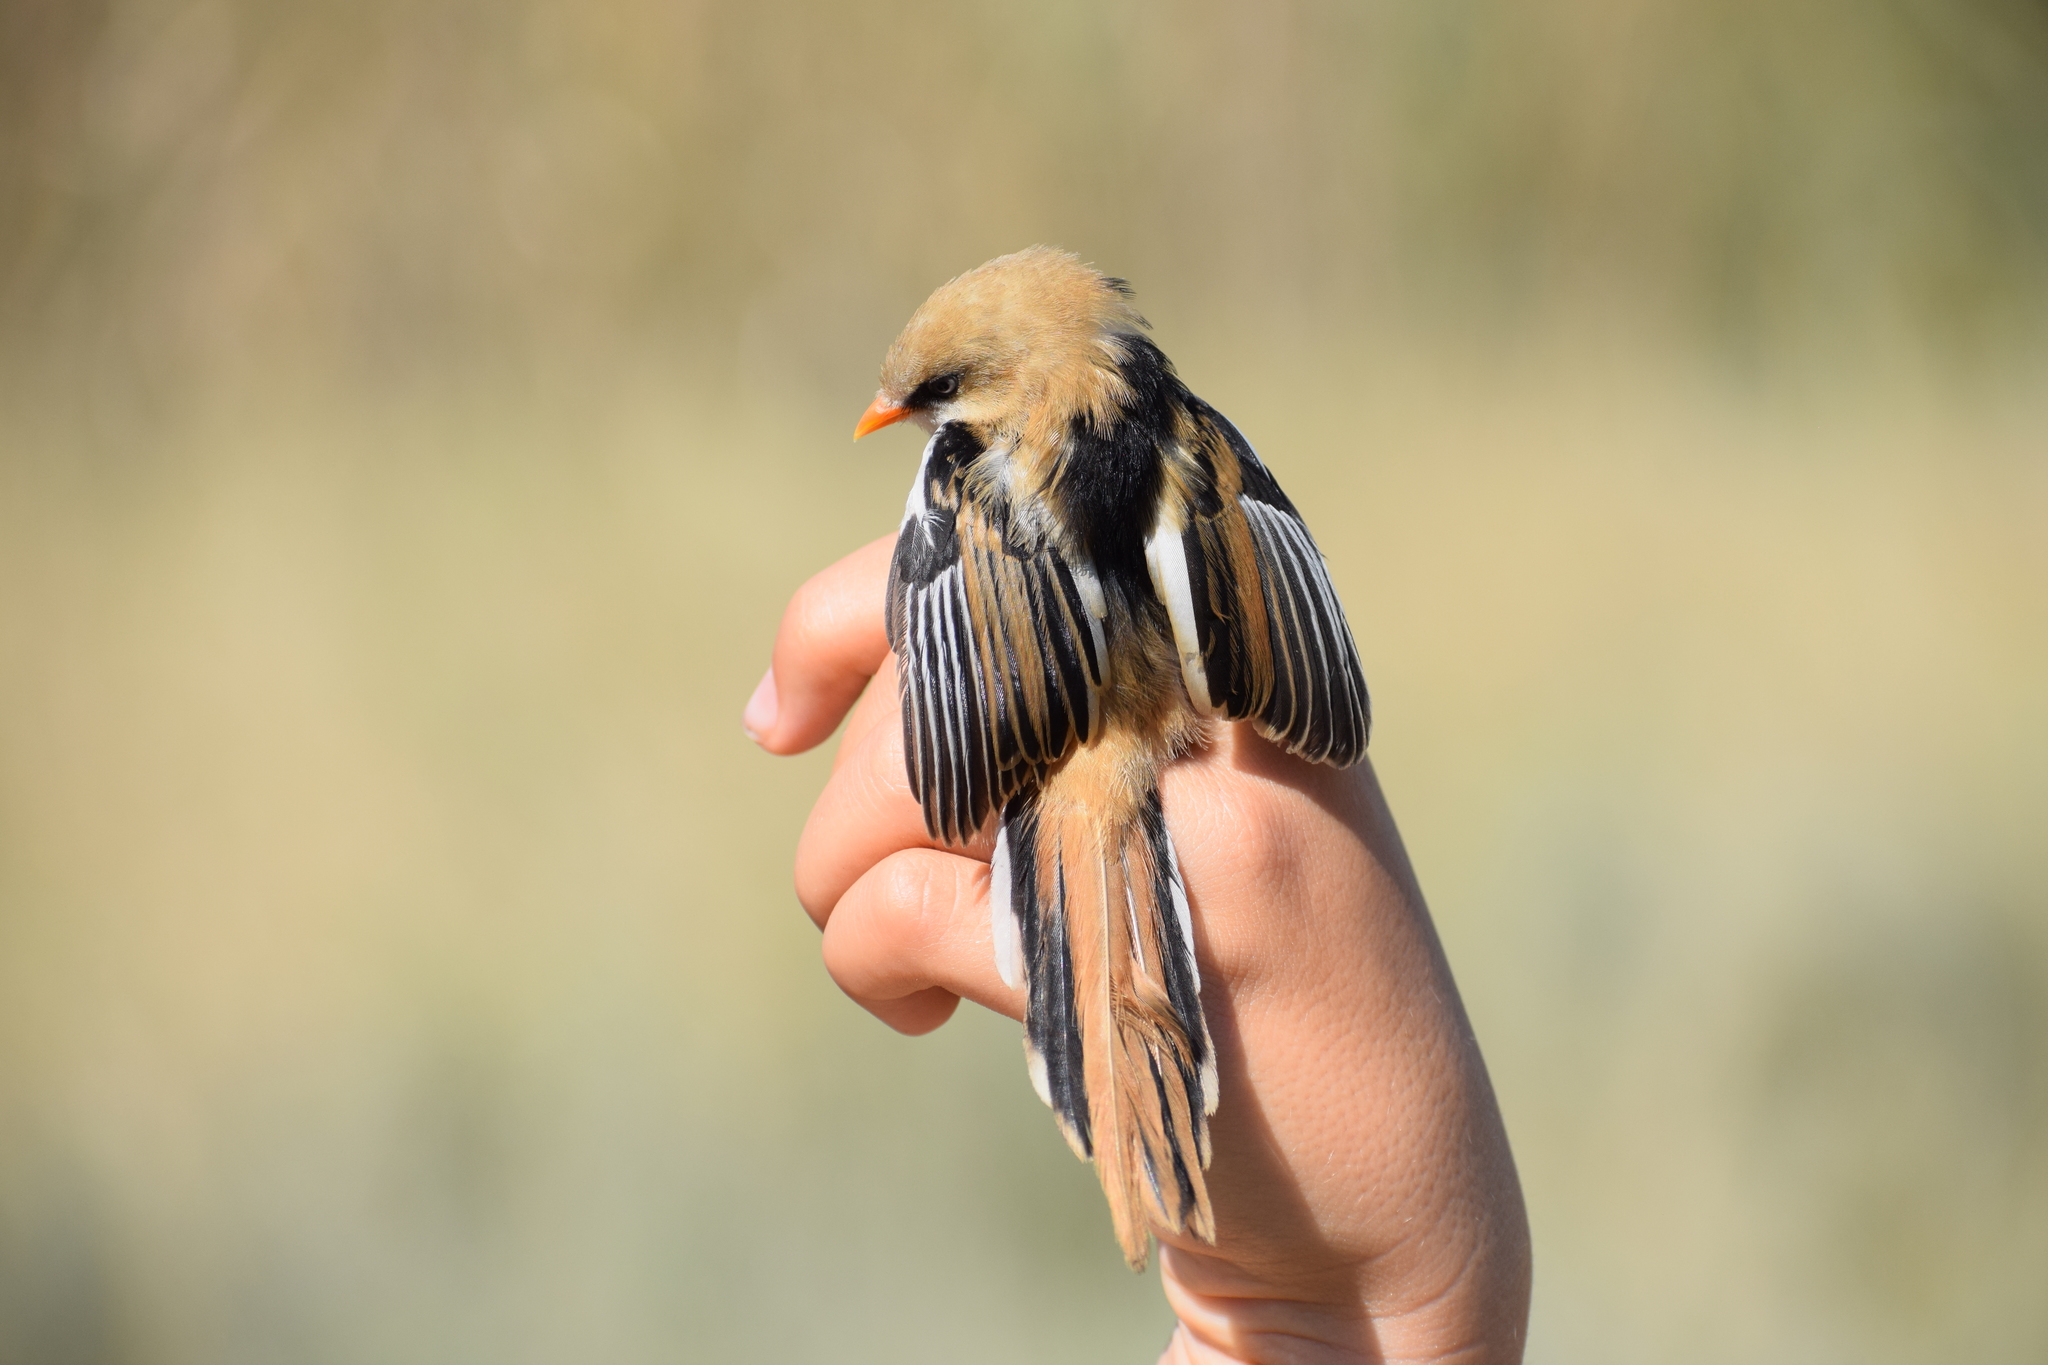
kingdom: Animalia
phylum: Chordata
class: Aves
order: Passeriformes
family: Panuridae
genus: Panurus
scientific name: Panurus biarmicus
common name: Bearded reedling
